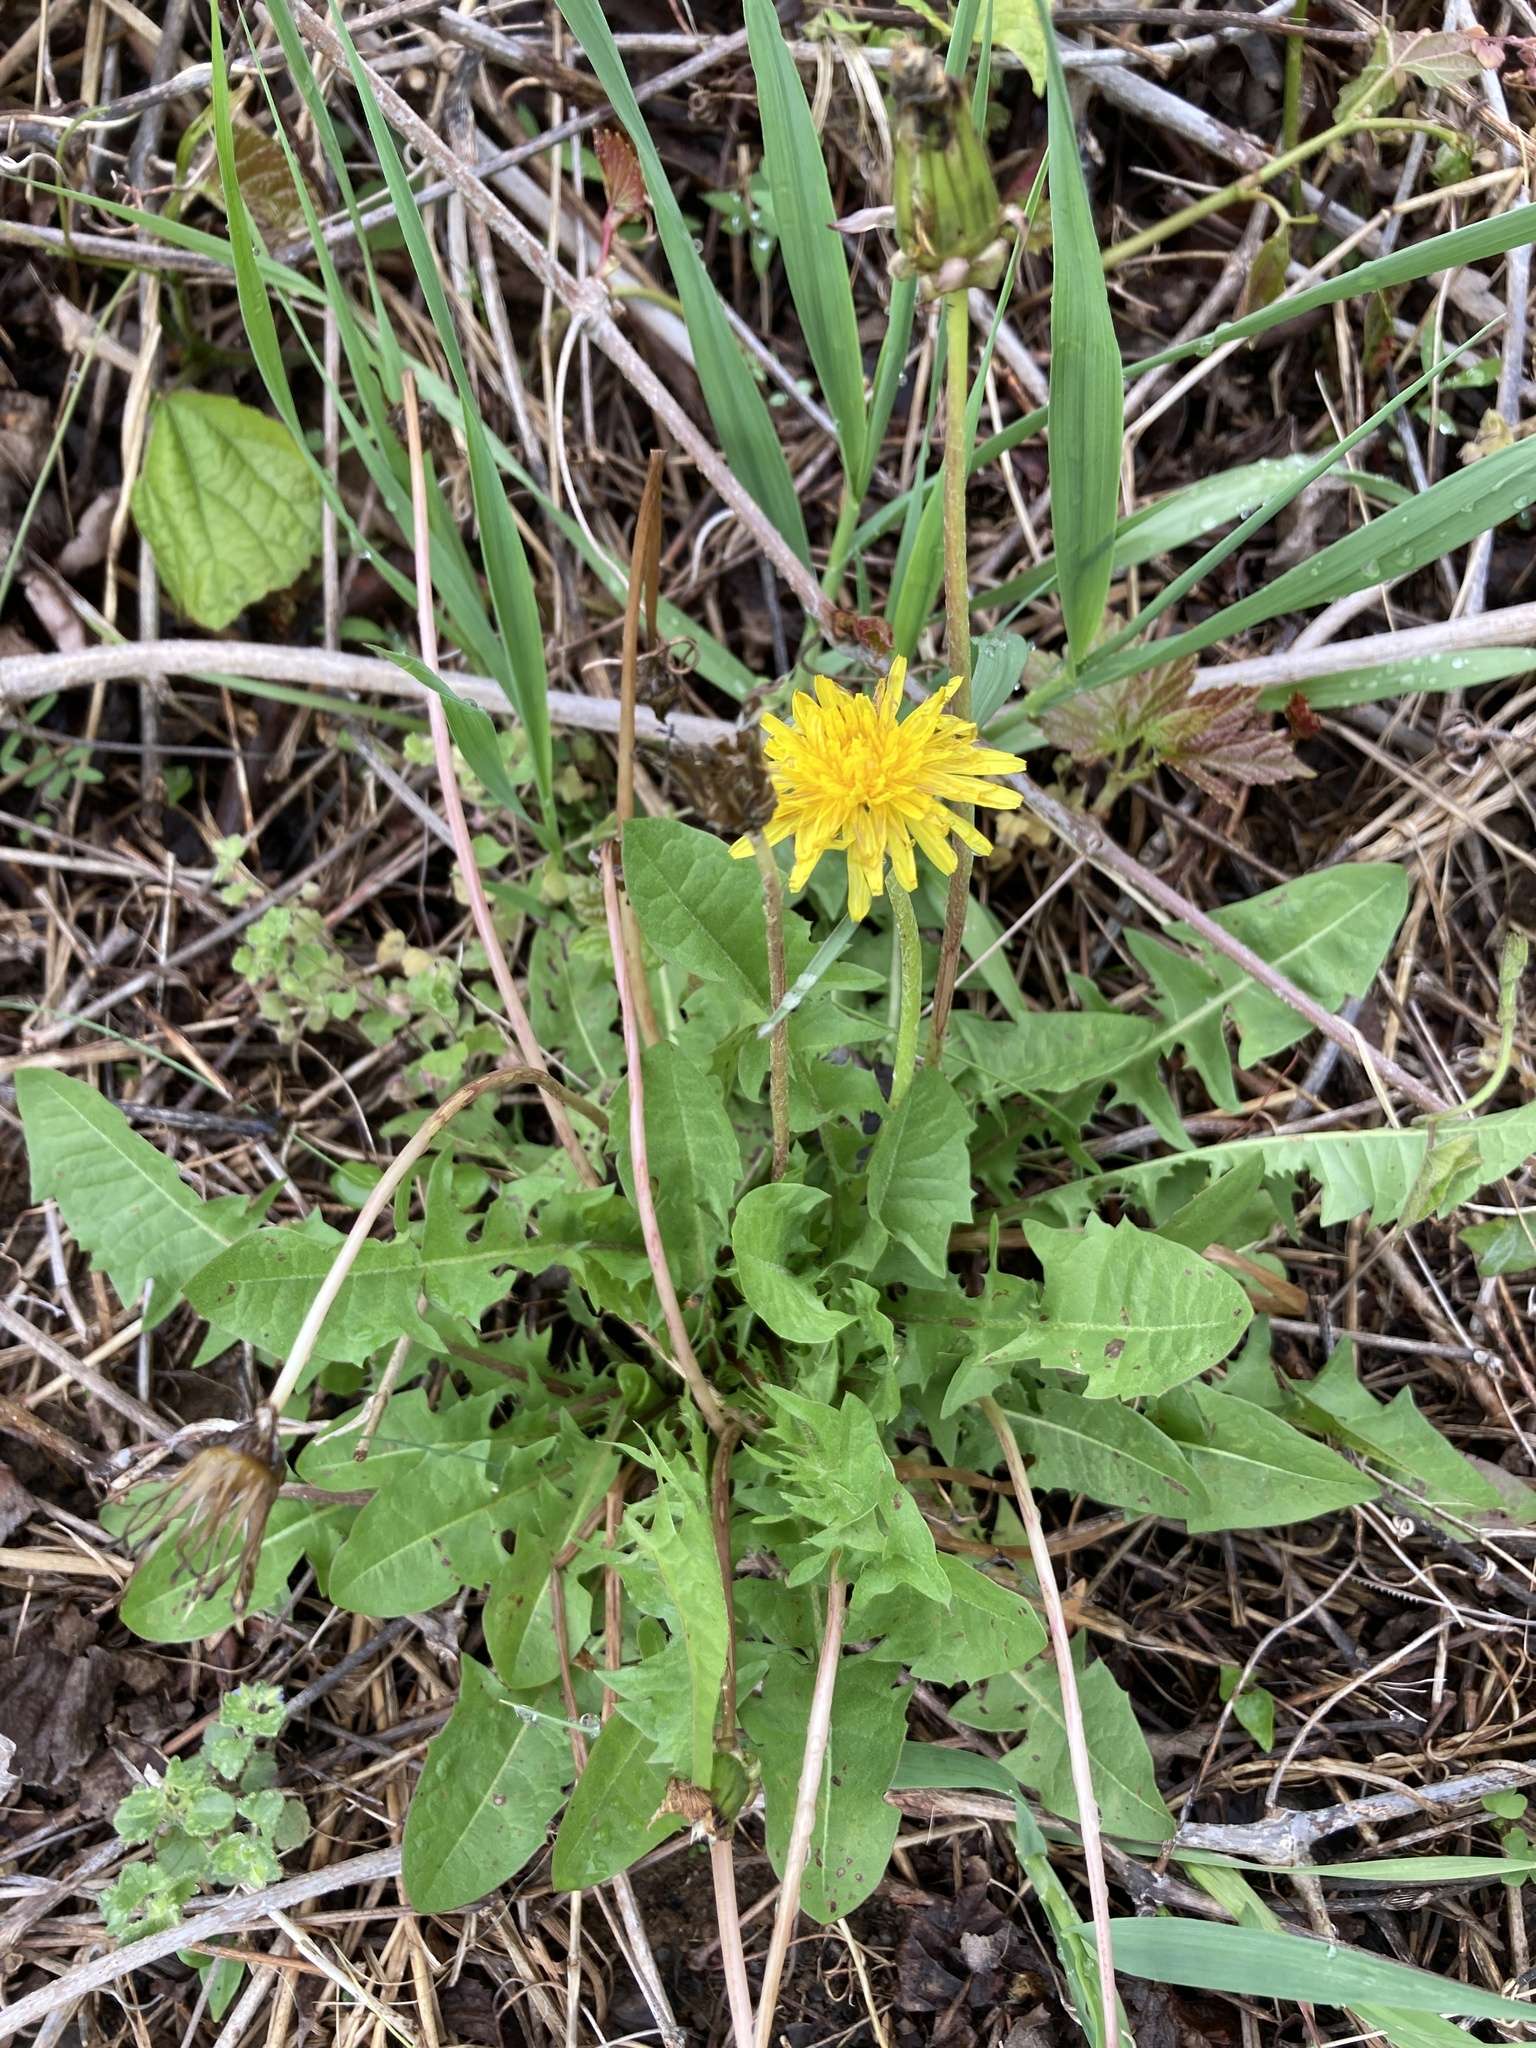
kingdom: Plantae
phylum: Tracheophyta
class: Magnoliopsida
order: Asterales
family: Asteraceae
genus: Taraxacum
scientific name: Taraxacum officinale
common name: Common dandelion
